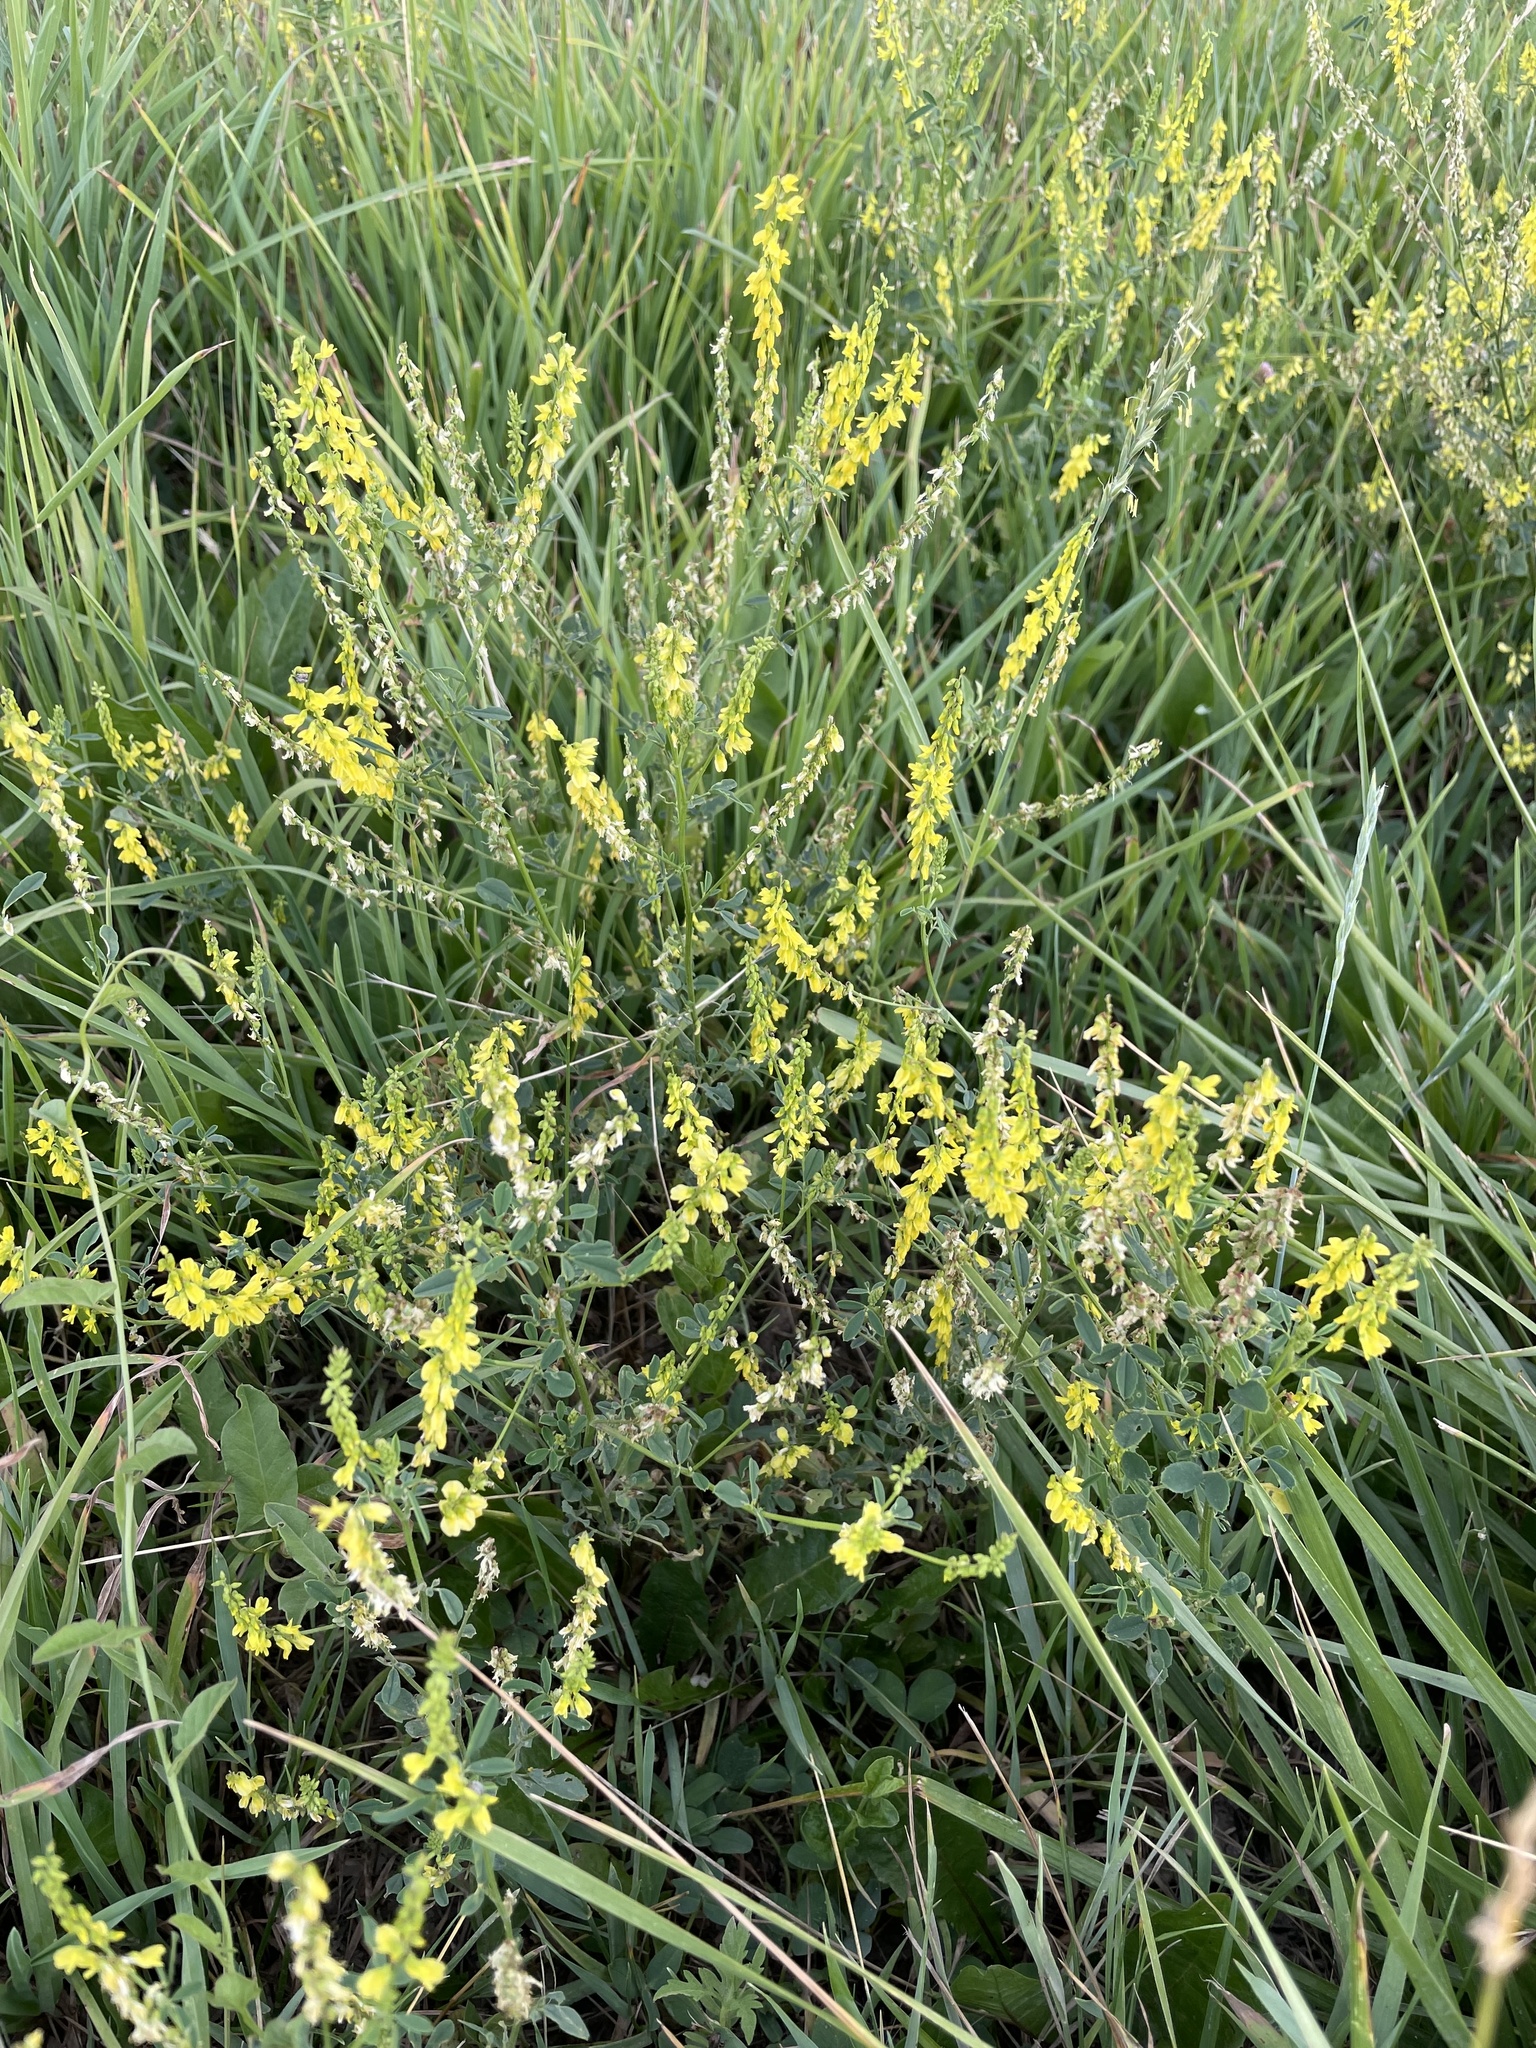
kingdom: Plantae
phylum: Tracheophyta
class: Magnoliopsida
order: Fabales
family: Fabaceae
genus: Melilotus
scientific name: Melilotus officinalis
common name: Sweetclover
